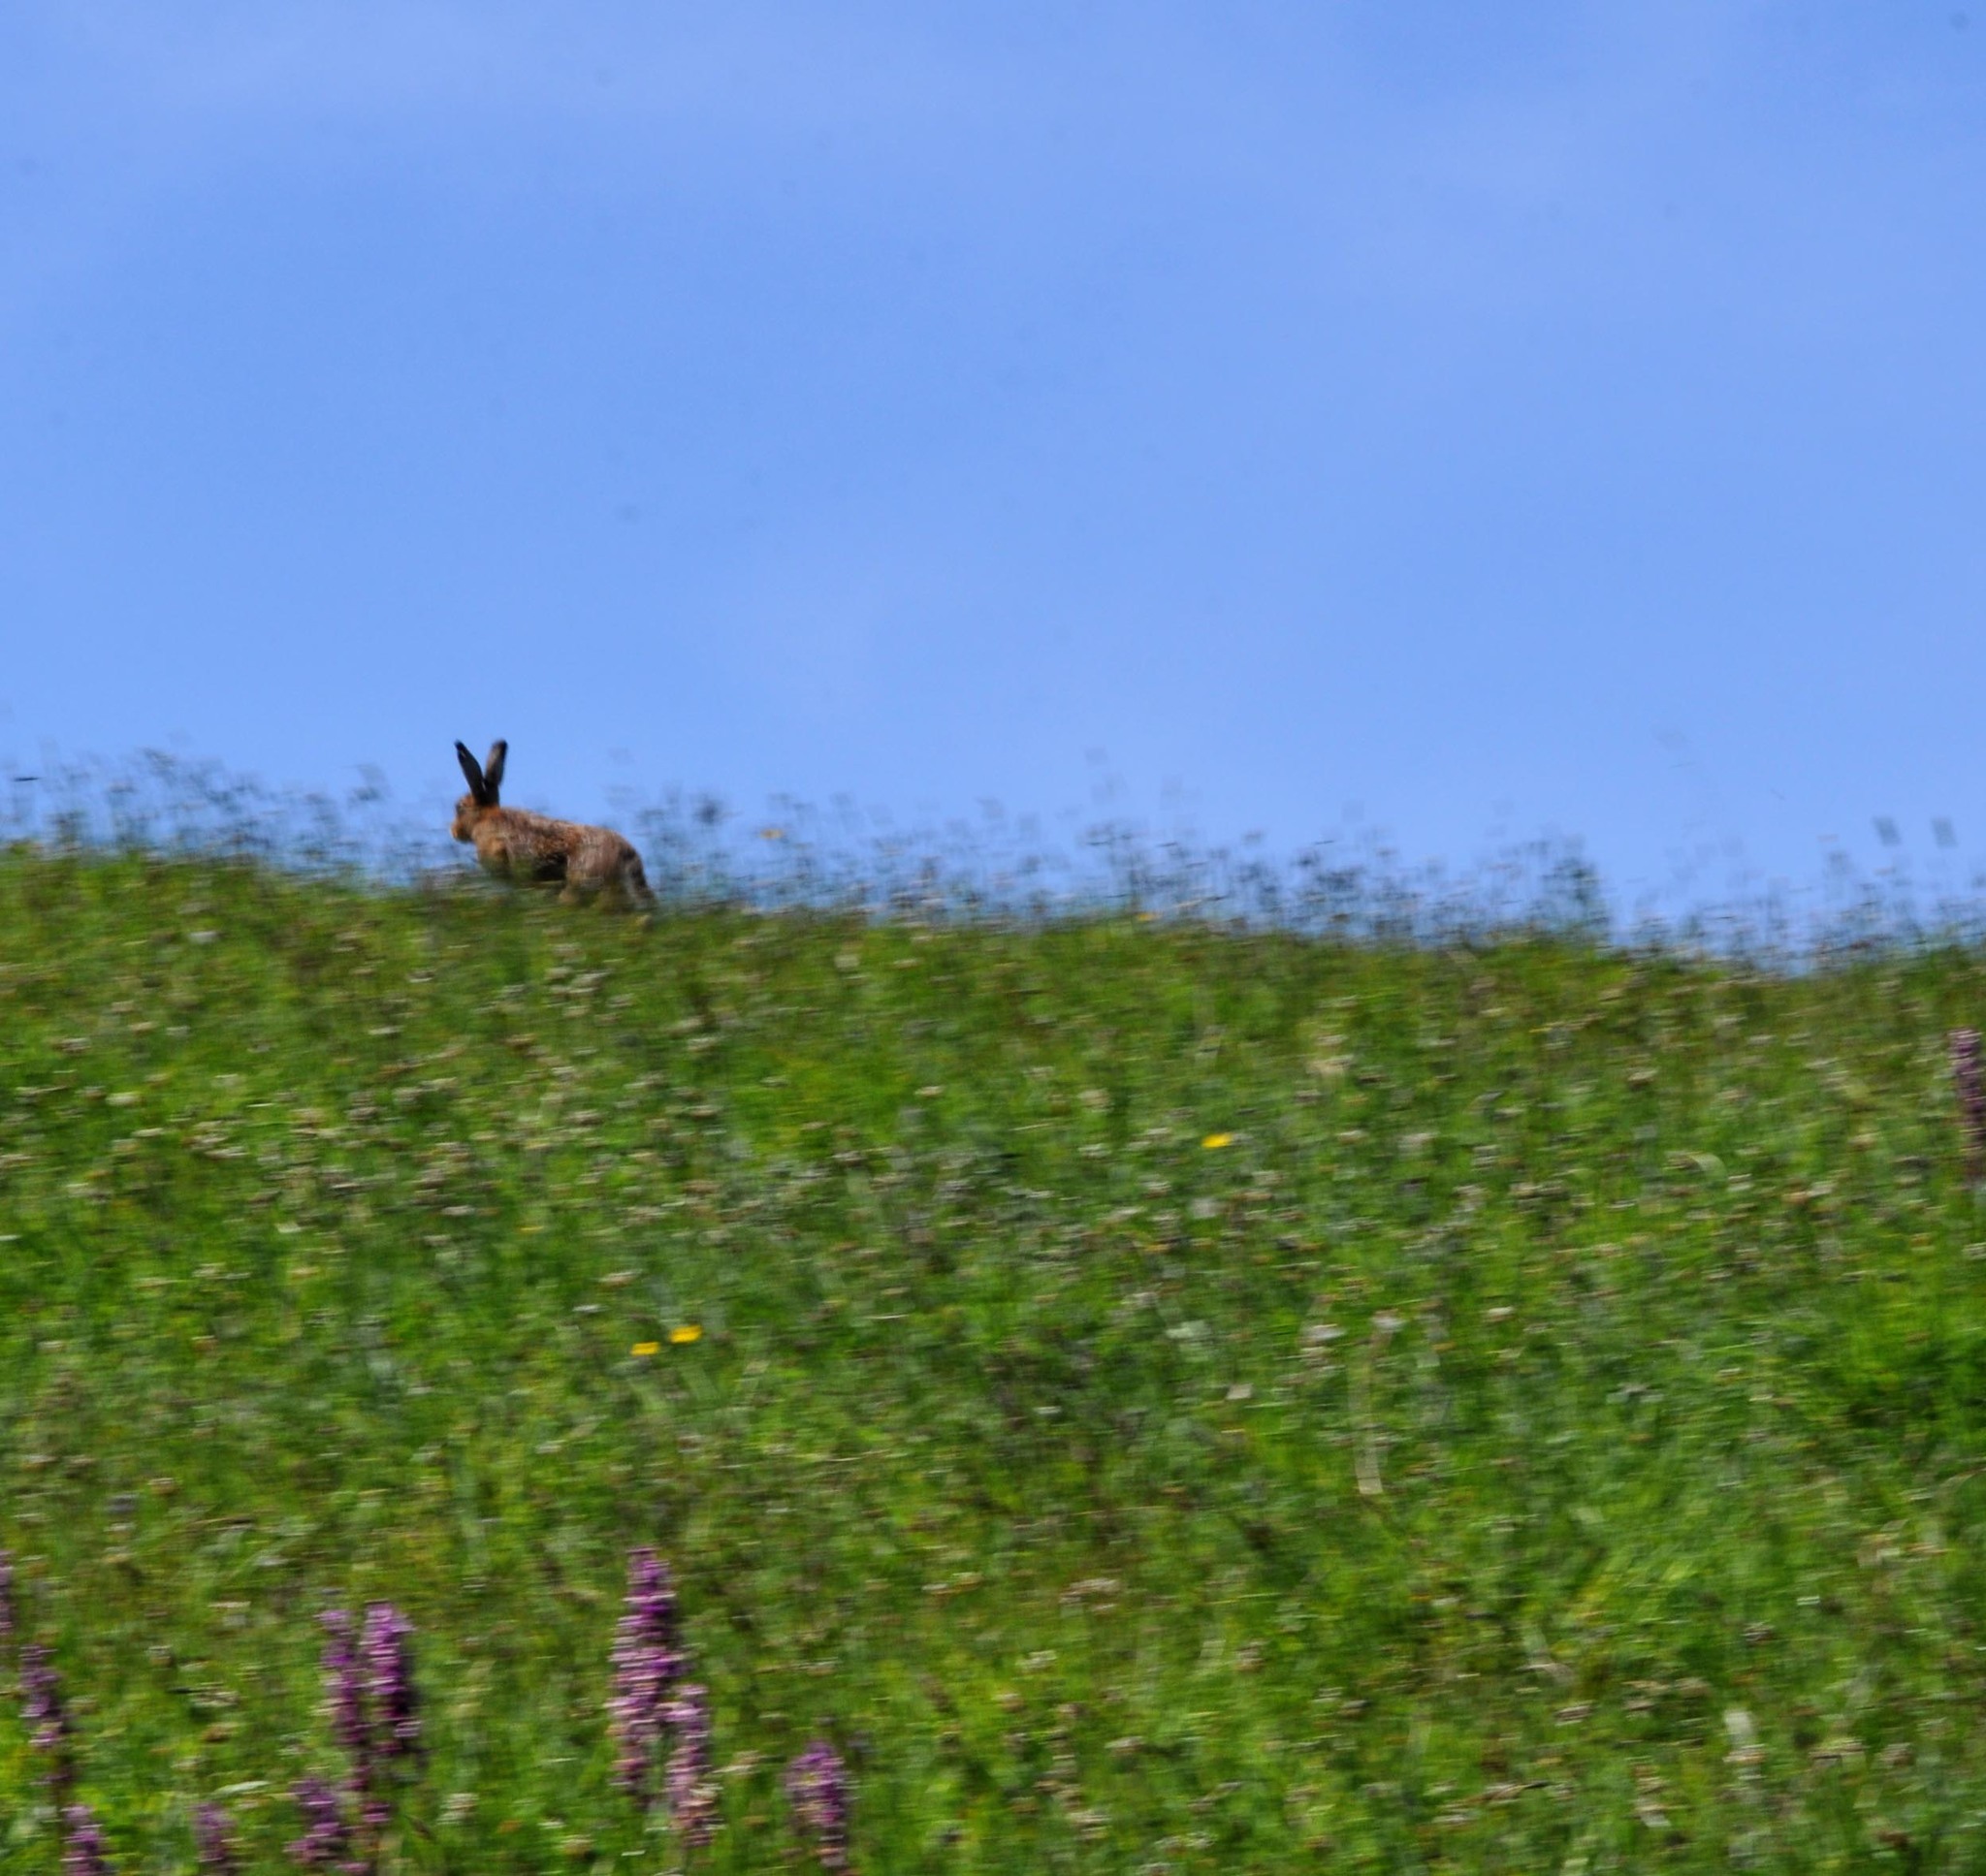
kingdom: Animalia
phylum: Chordata
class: Mammalia
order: Lagomorpha
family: Leporidae
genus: Lepus
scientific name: Lepus europaeus
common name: European hare
